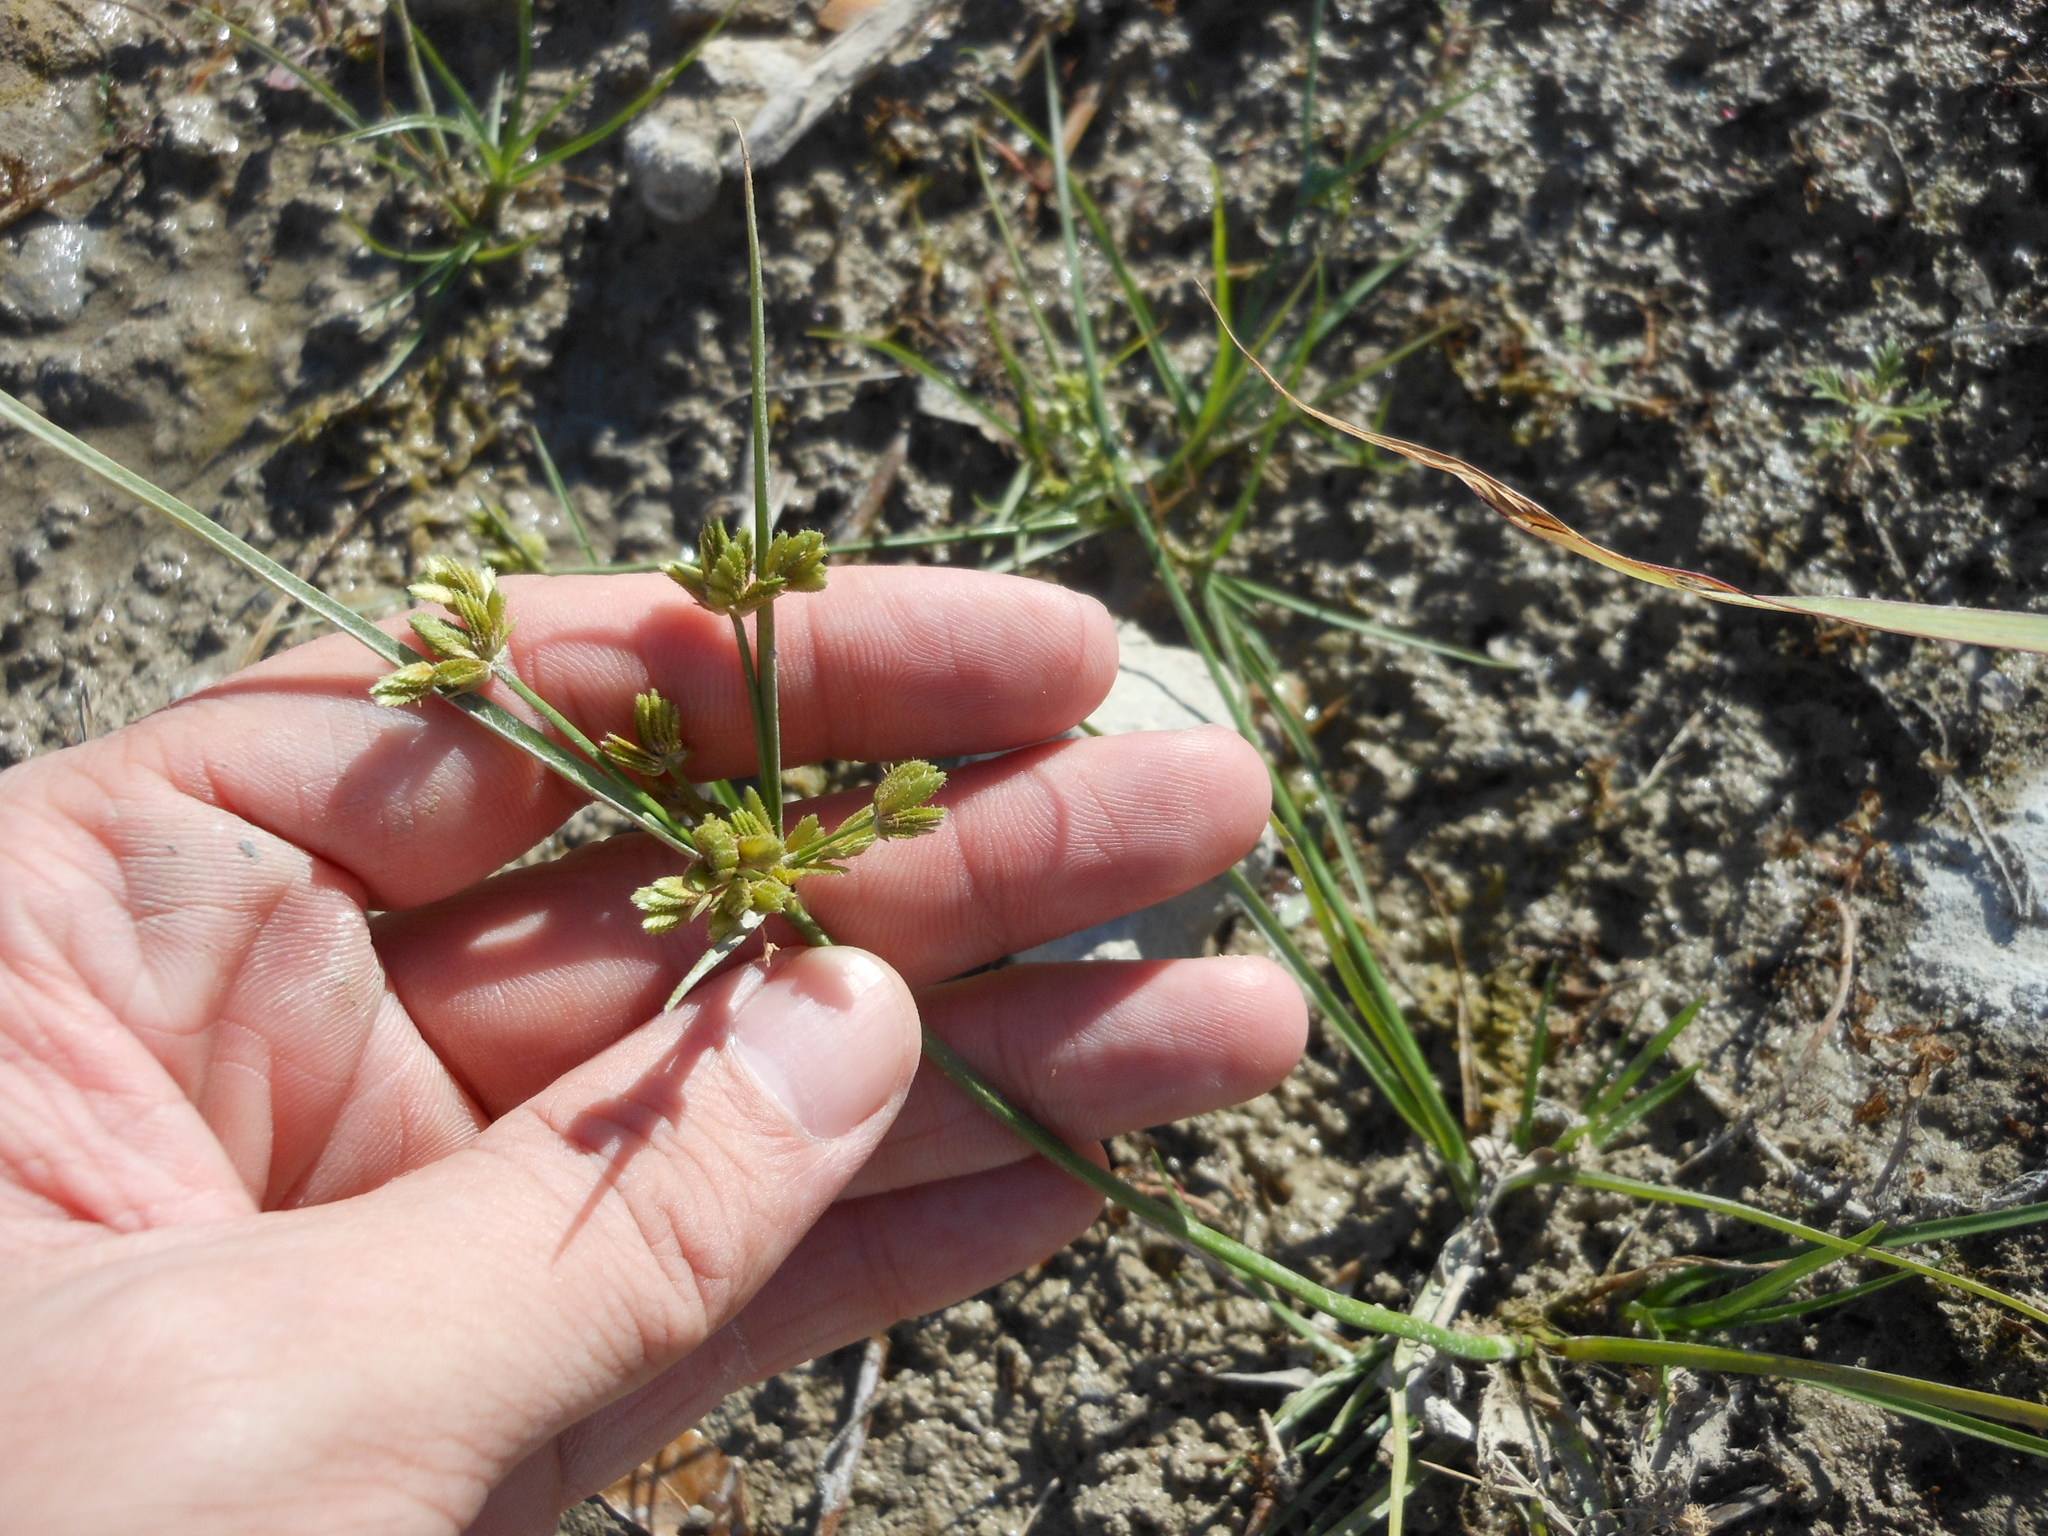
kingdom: Plantae
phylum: Tracheophyta
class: Liliopsida
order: Poales
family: Cyperaceae
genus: Cyperus
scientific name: Cyperus surinamensis
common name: Tropical flat sedge
